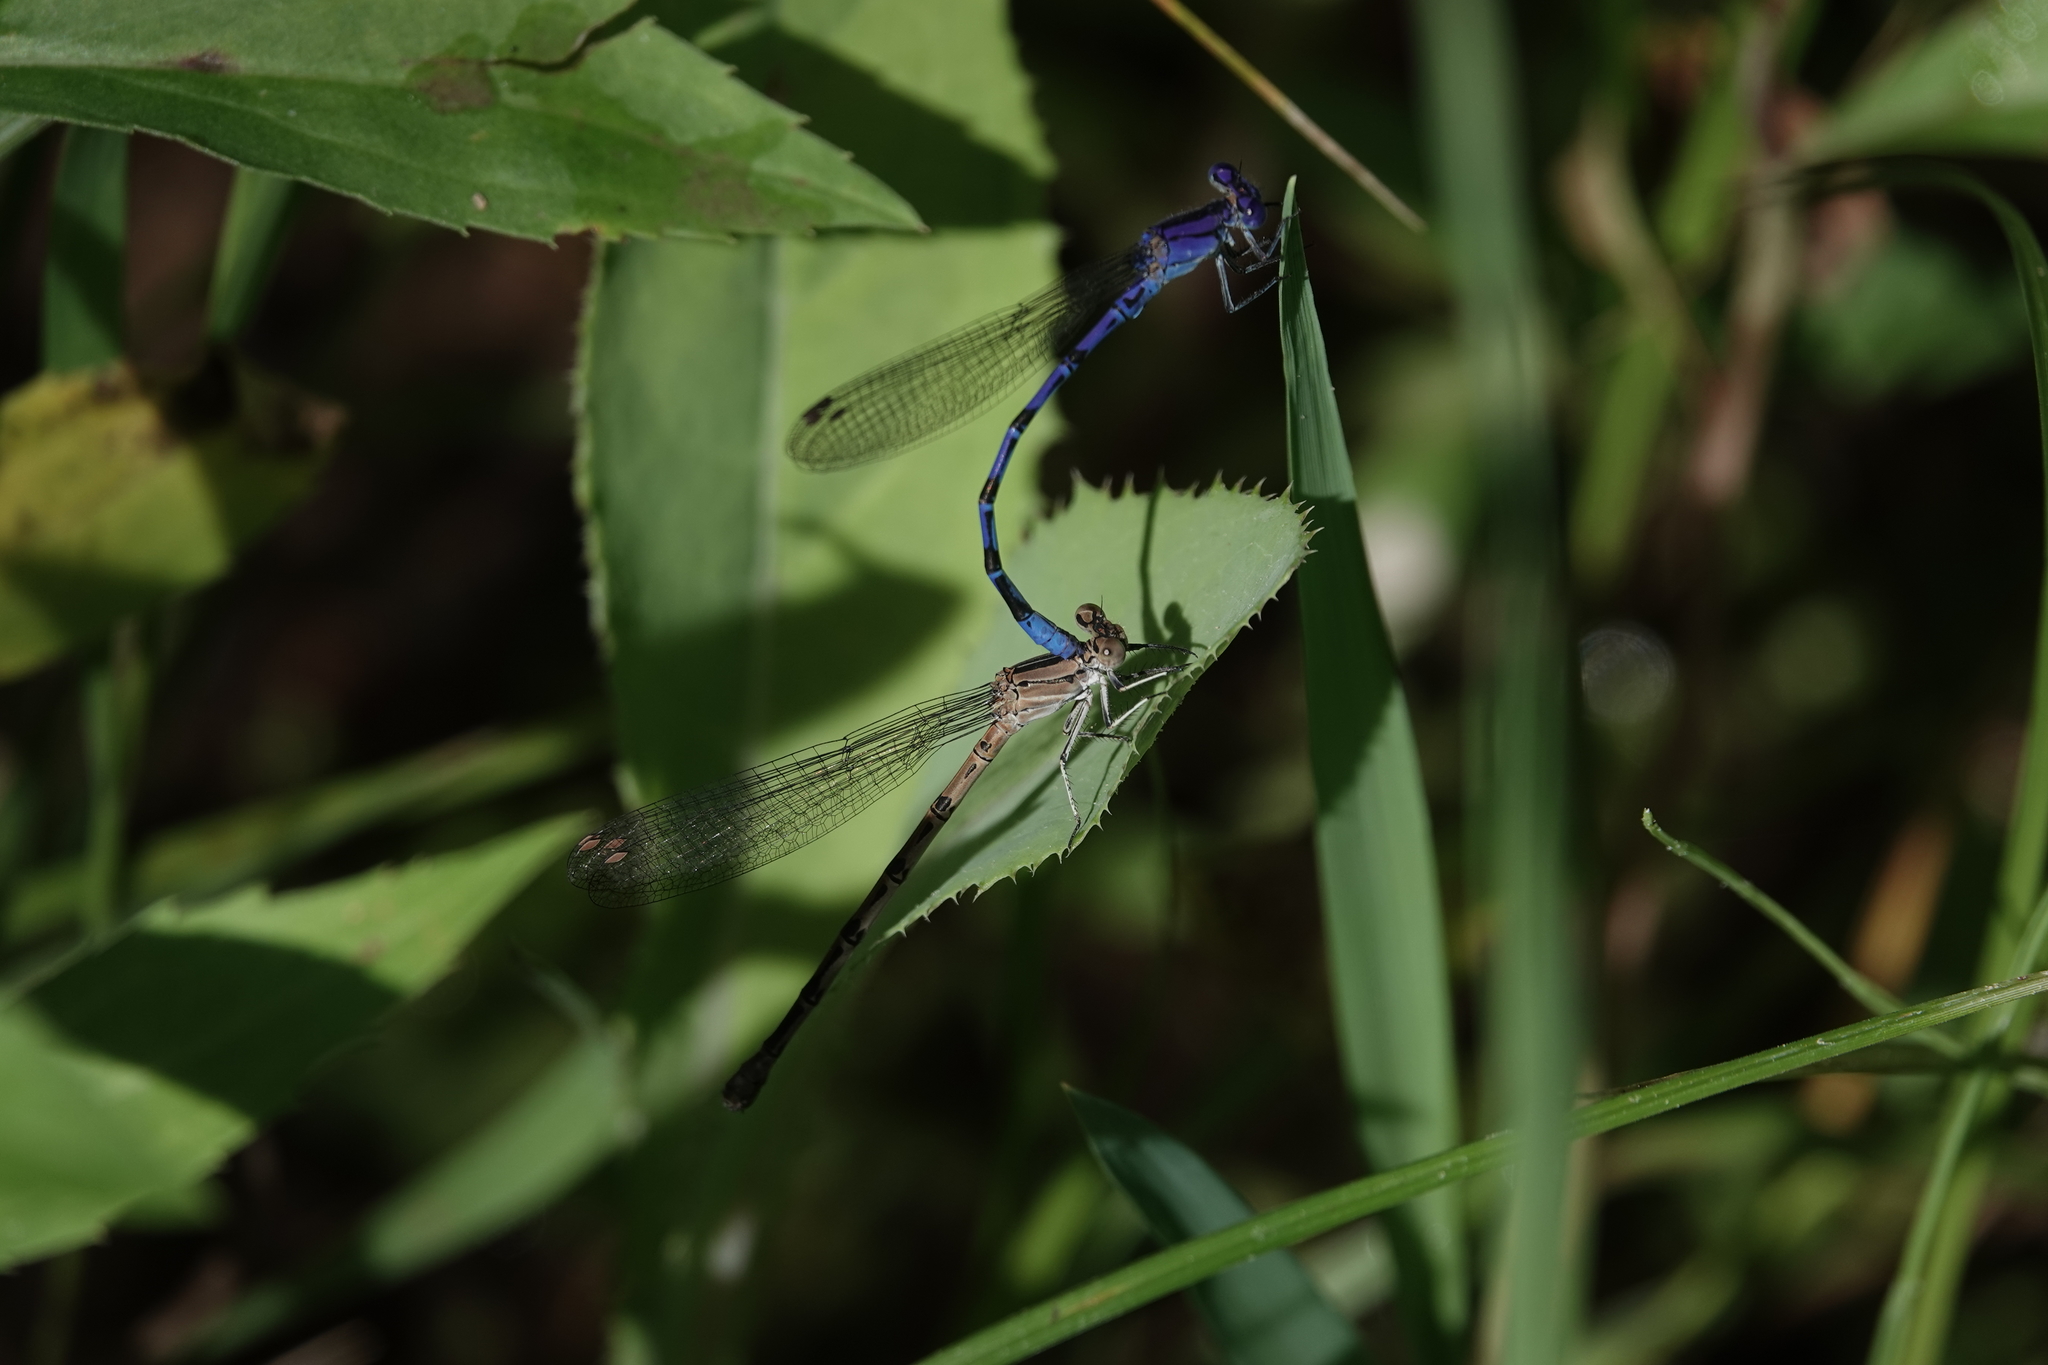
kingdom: Animalia
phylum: Arthropoda
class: Insecta
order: Odonata
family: Coenagrionidae
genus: Argia
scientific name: Argia funebris
